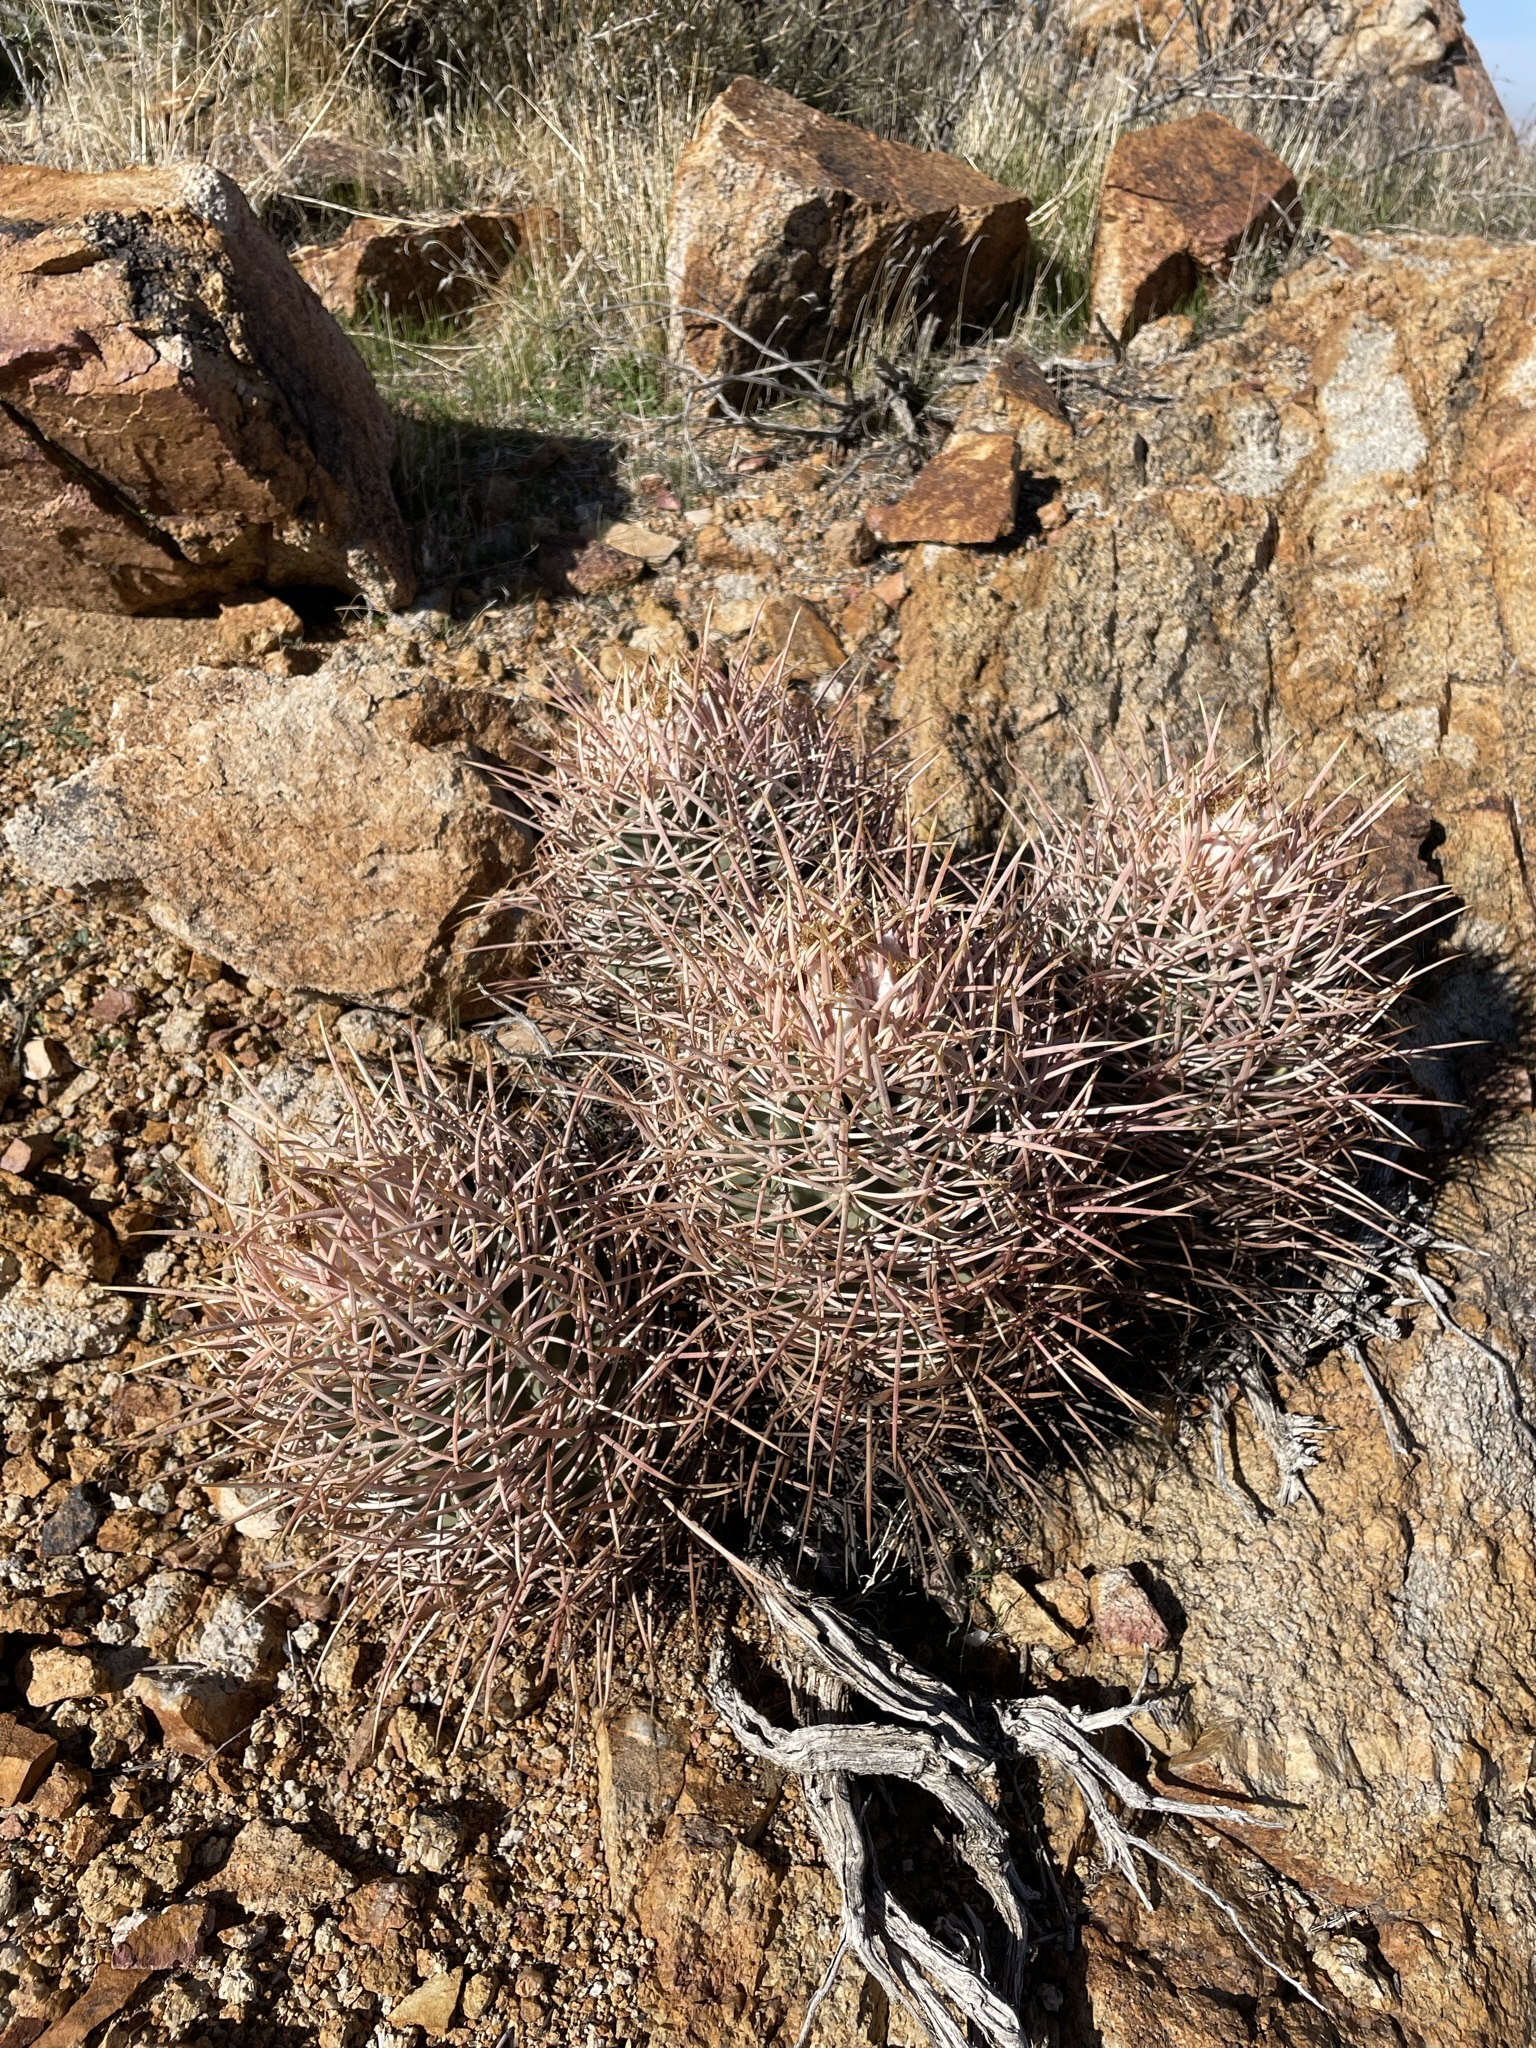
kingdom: Plantae
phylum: Tracheophyta
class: Magnoliopsida
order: Caryophyllales
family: Cactaceae
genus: Echinocactus
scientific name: Echinocactus polycephalus
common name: Cottontop cactus
